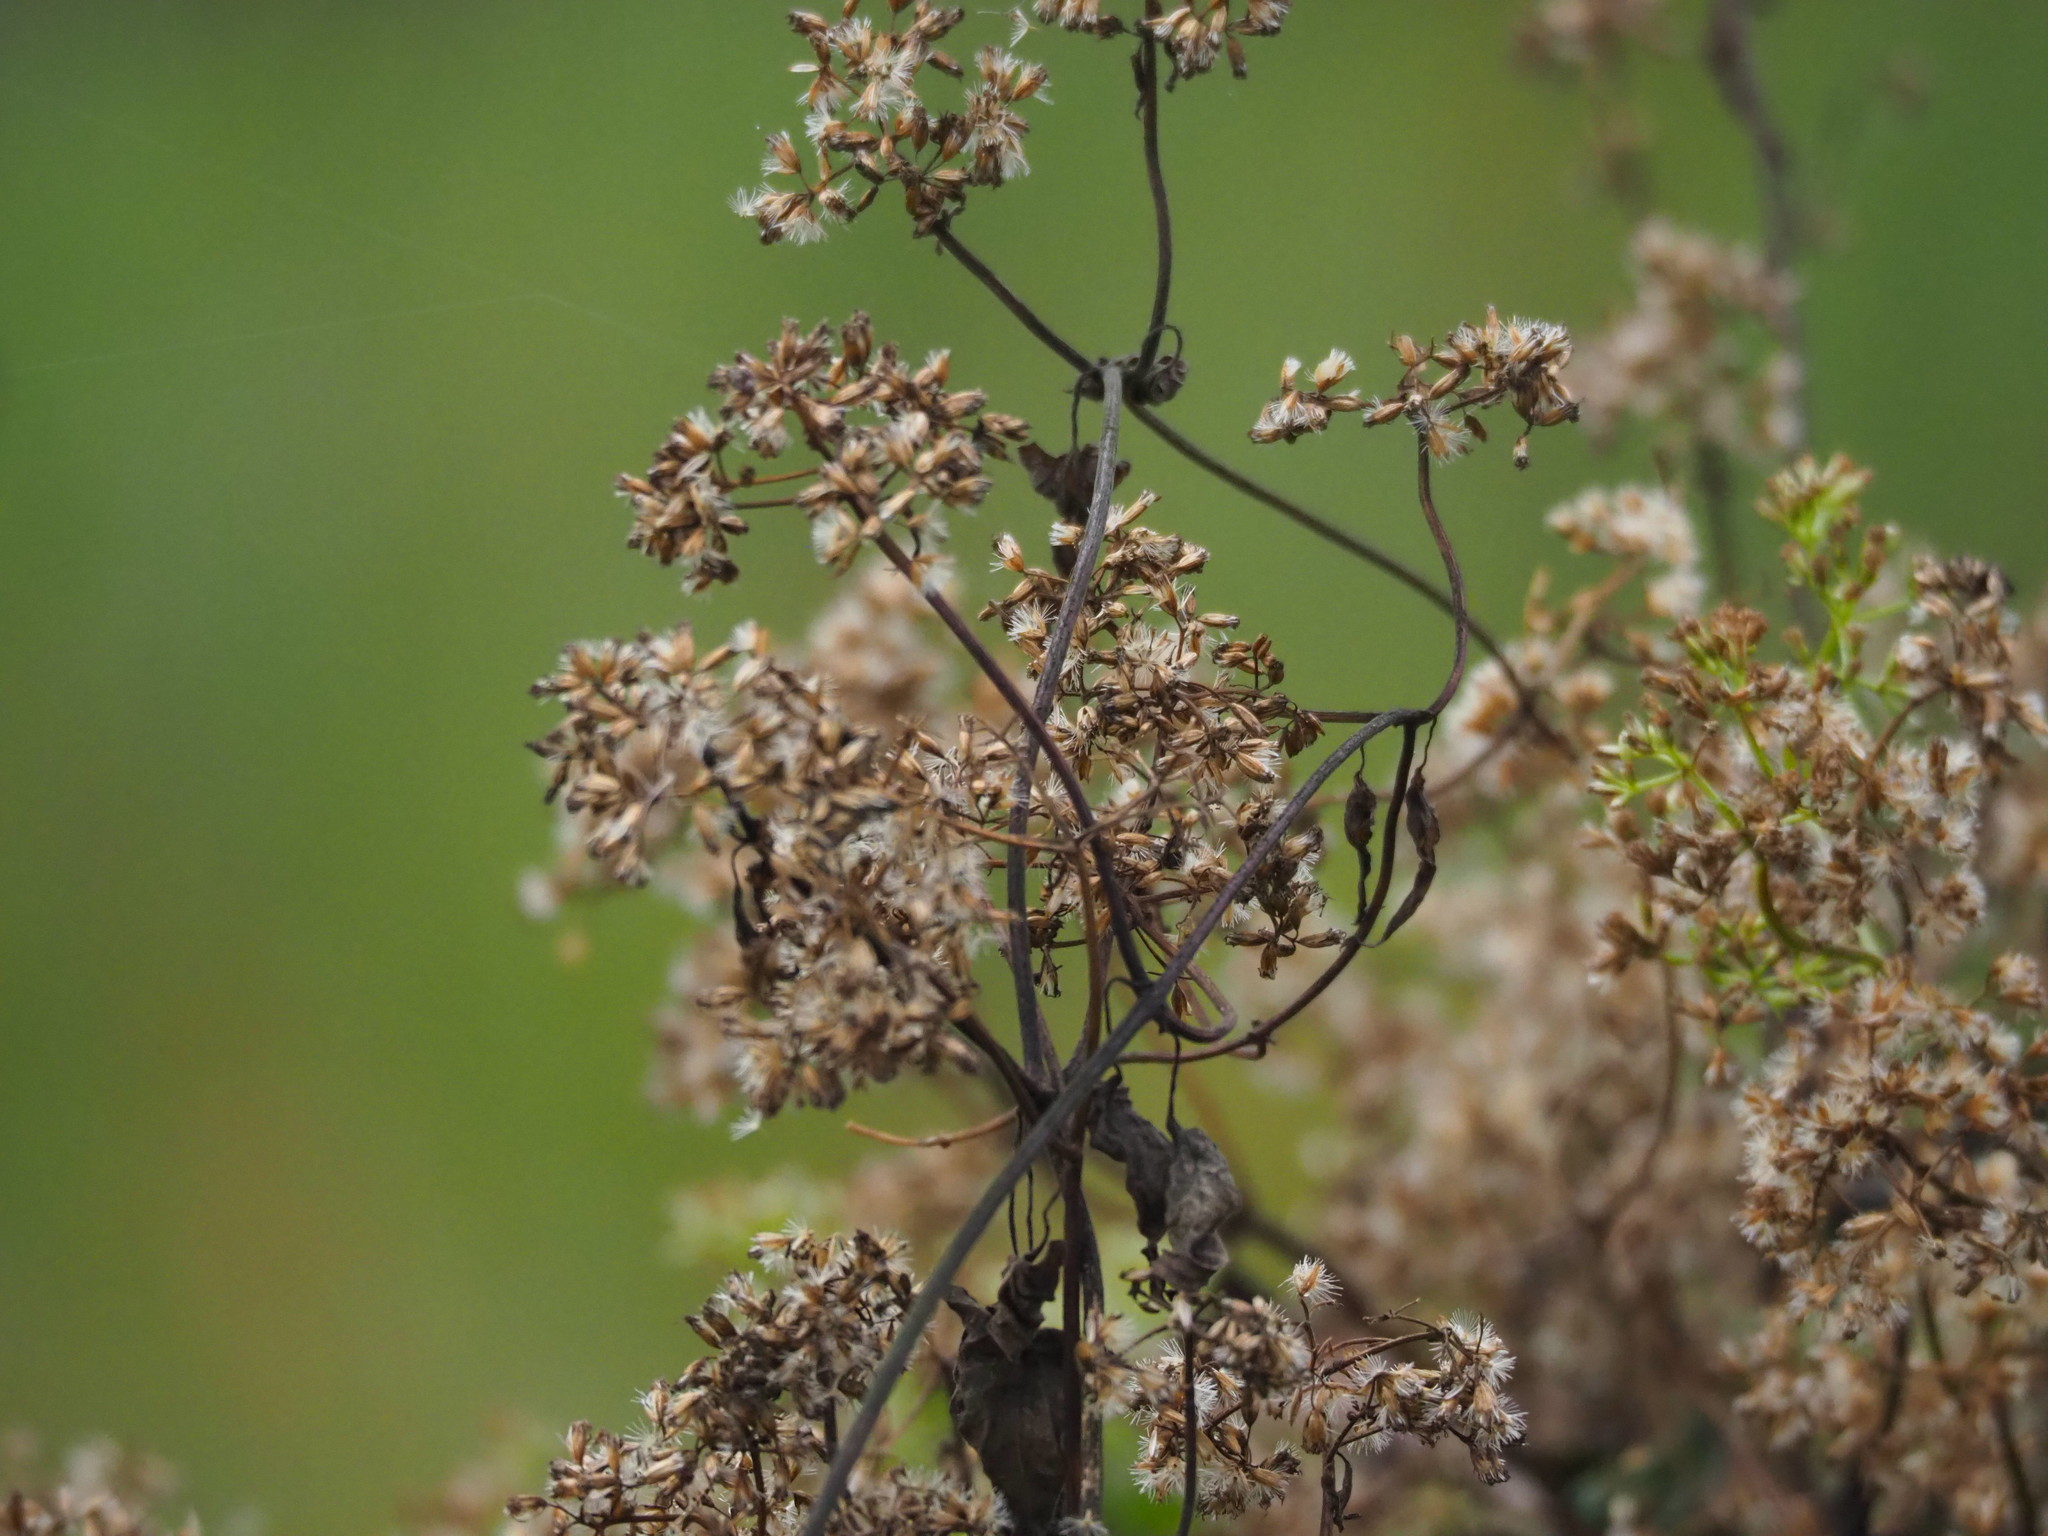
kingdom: Plantae
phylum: Tracheophyta
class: Magnoliopsida
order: Asterales
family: Asteraceae
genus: Mikania
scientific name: Mikania micrantha
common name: Mile-a-minute
